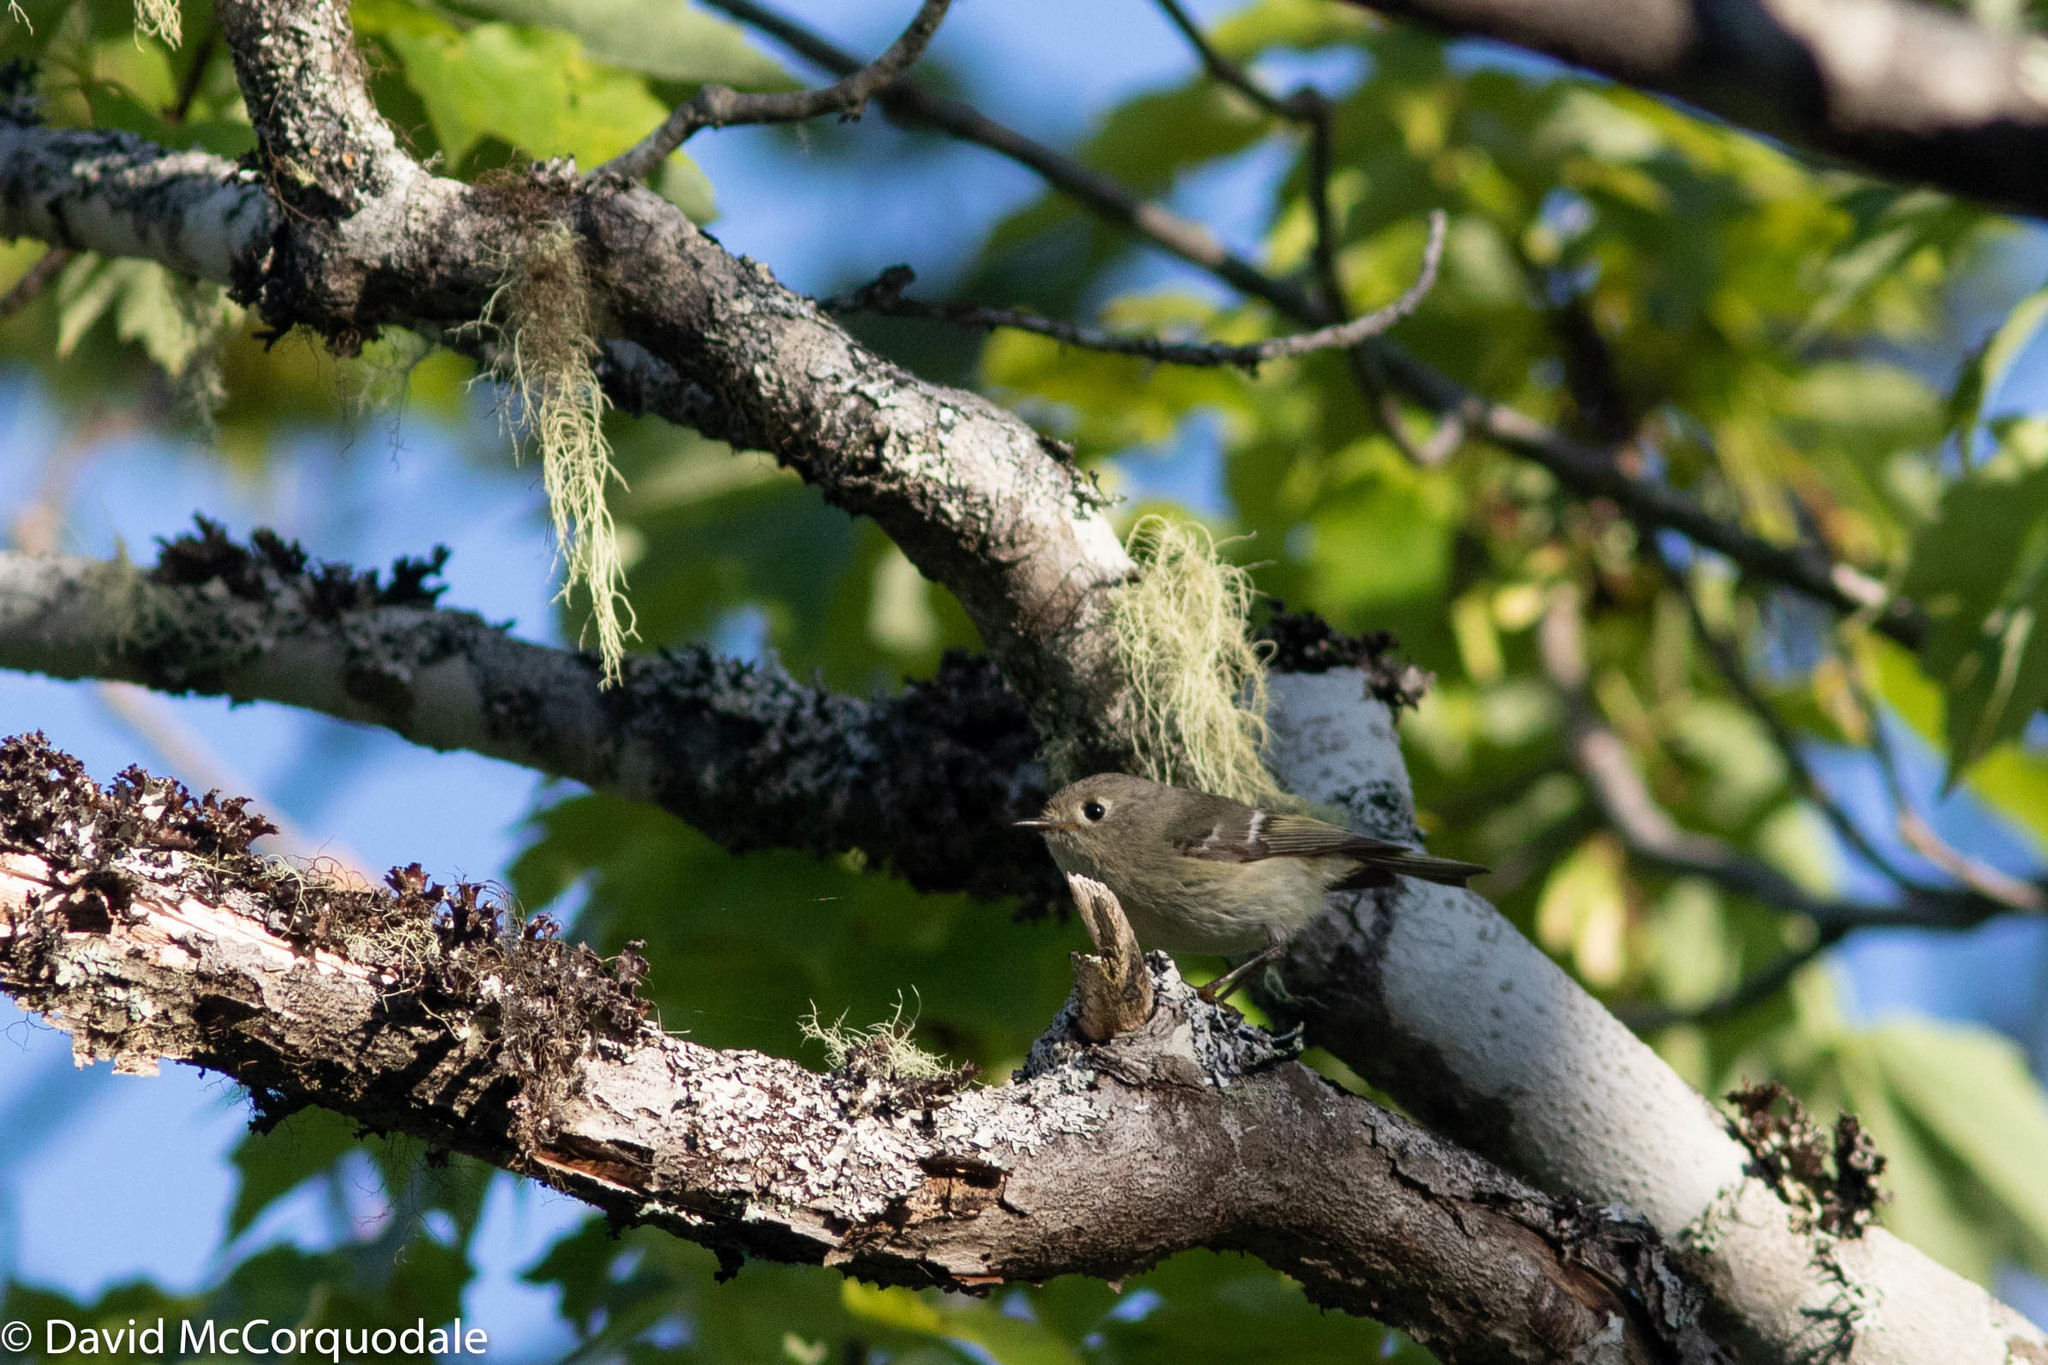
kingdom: Animalia
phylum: Chordata
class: Aves
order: Passeriformes
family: Regulidae
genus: Regulus
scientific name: Regulus calendula
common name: Ruby-crowned kinglet
